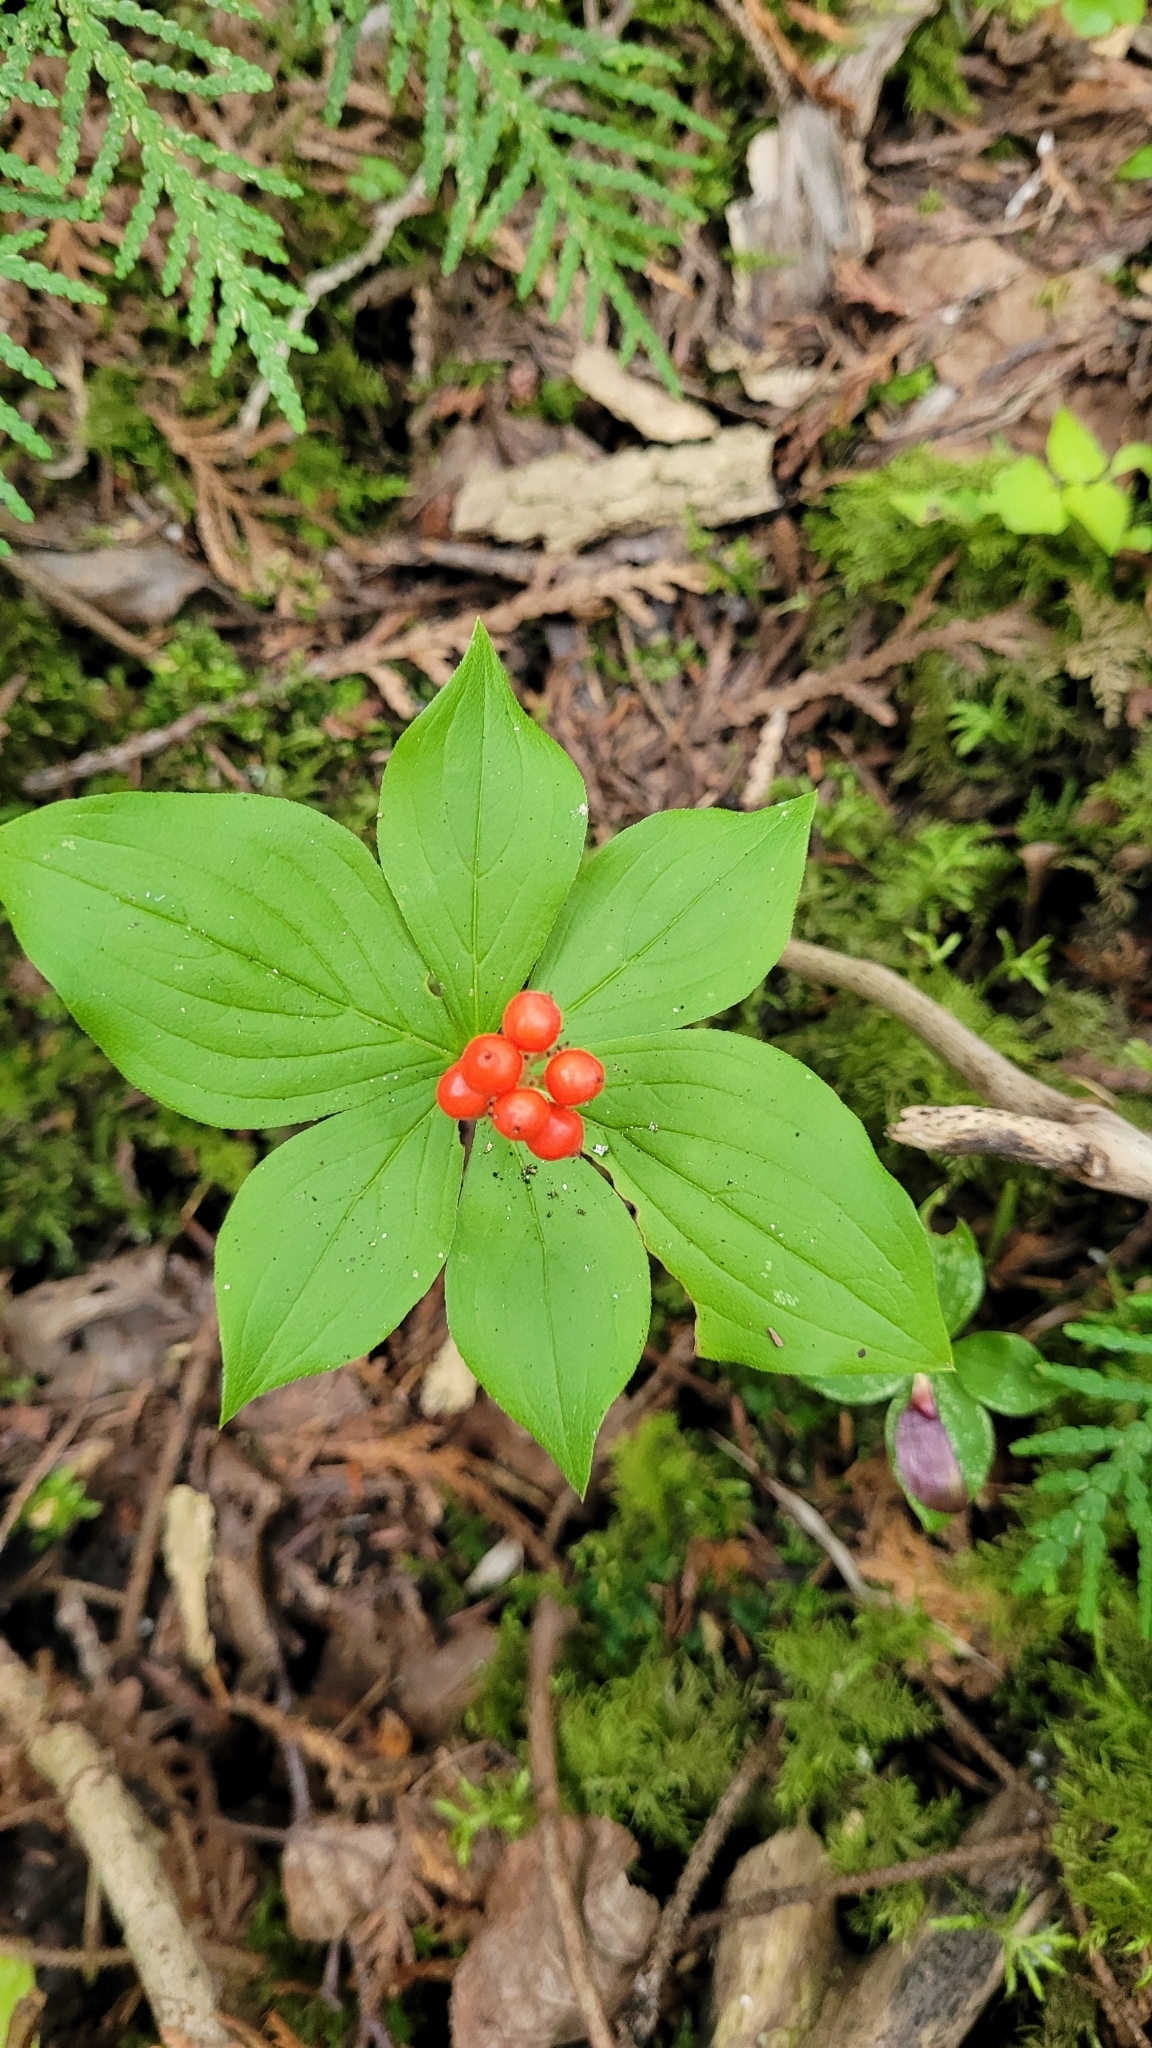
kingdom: Plantae
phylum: Tracheophyta
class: Magnoliopsida
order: Cornales
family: Cornaceae
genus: Cornus
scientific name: Cornus canadensis
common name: Creeping dogwood
